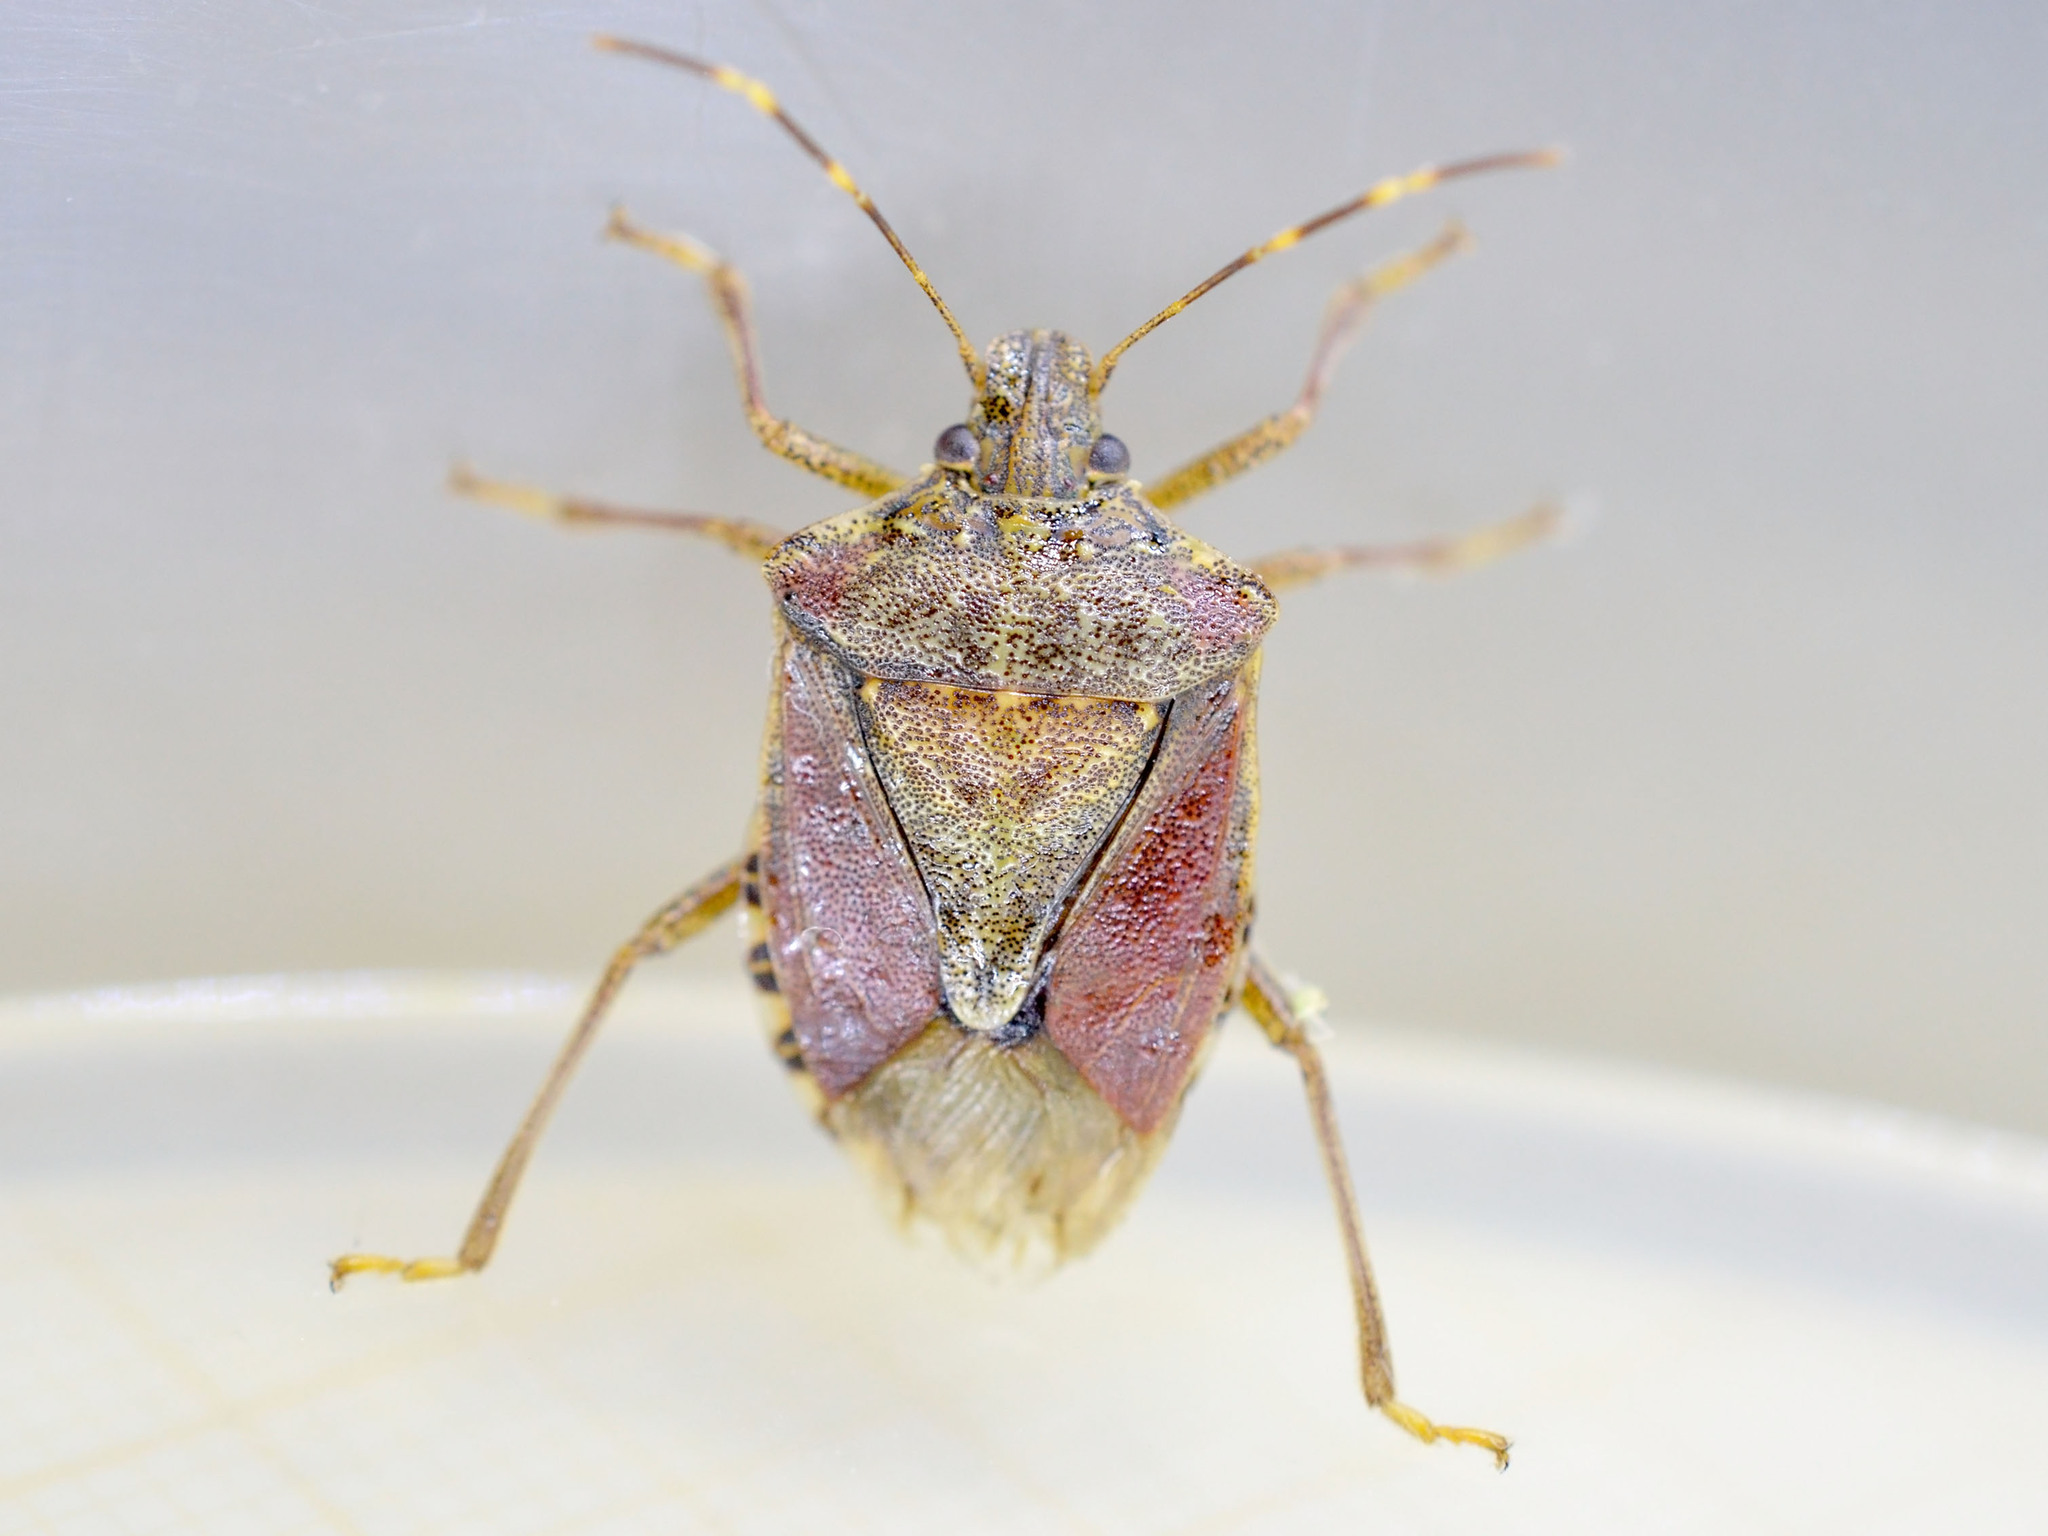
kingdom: Animalia
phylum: Arthropoda
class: Insecta
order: Hemiptera
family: Pentatomidae
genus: Halyomorpha
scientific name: Halyomorpha halys
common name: Brown marmorated stink bug
